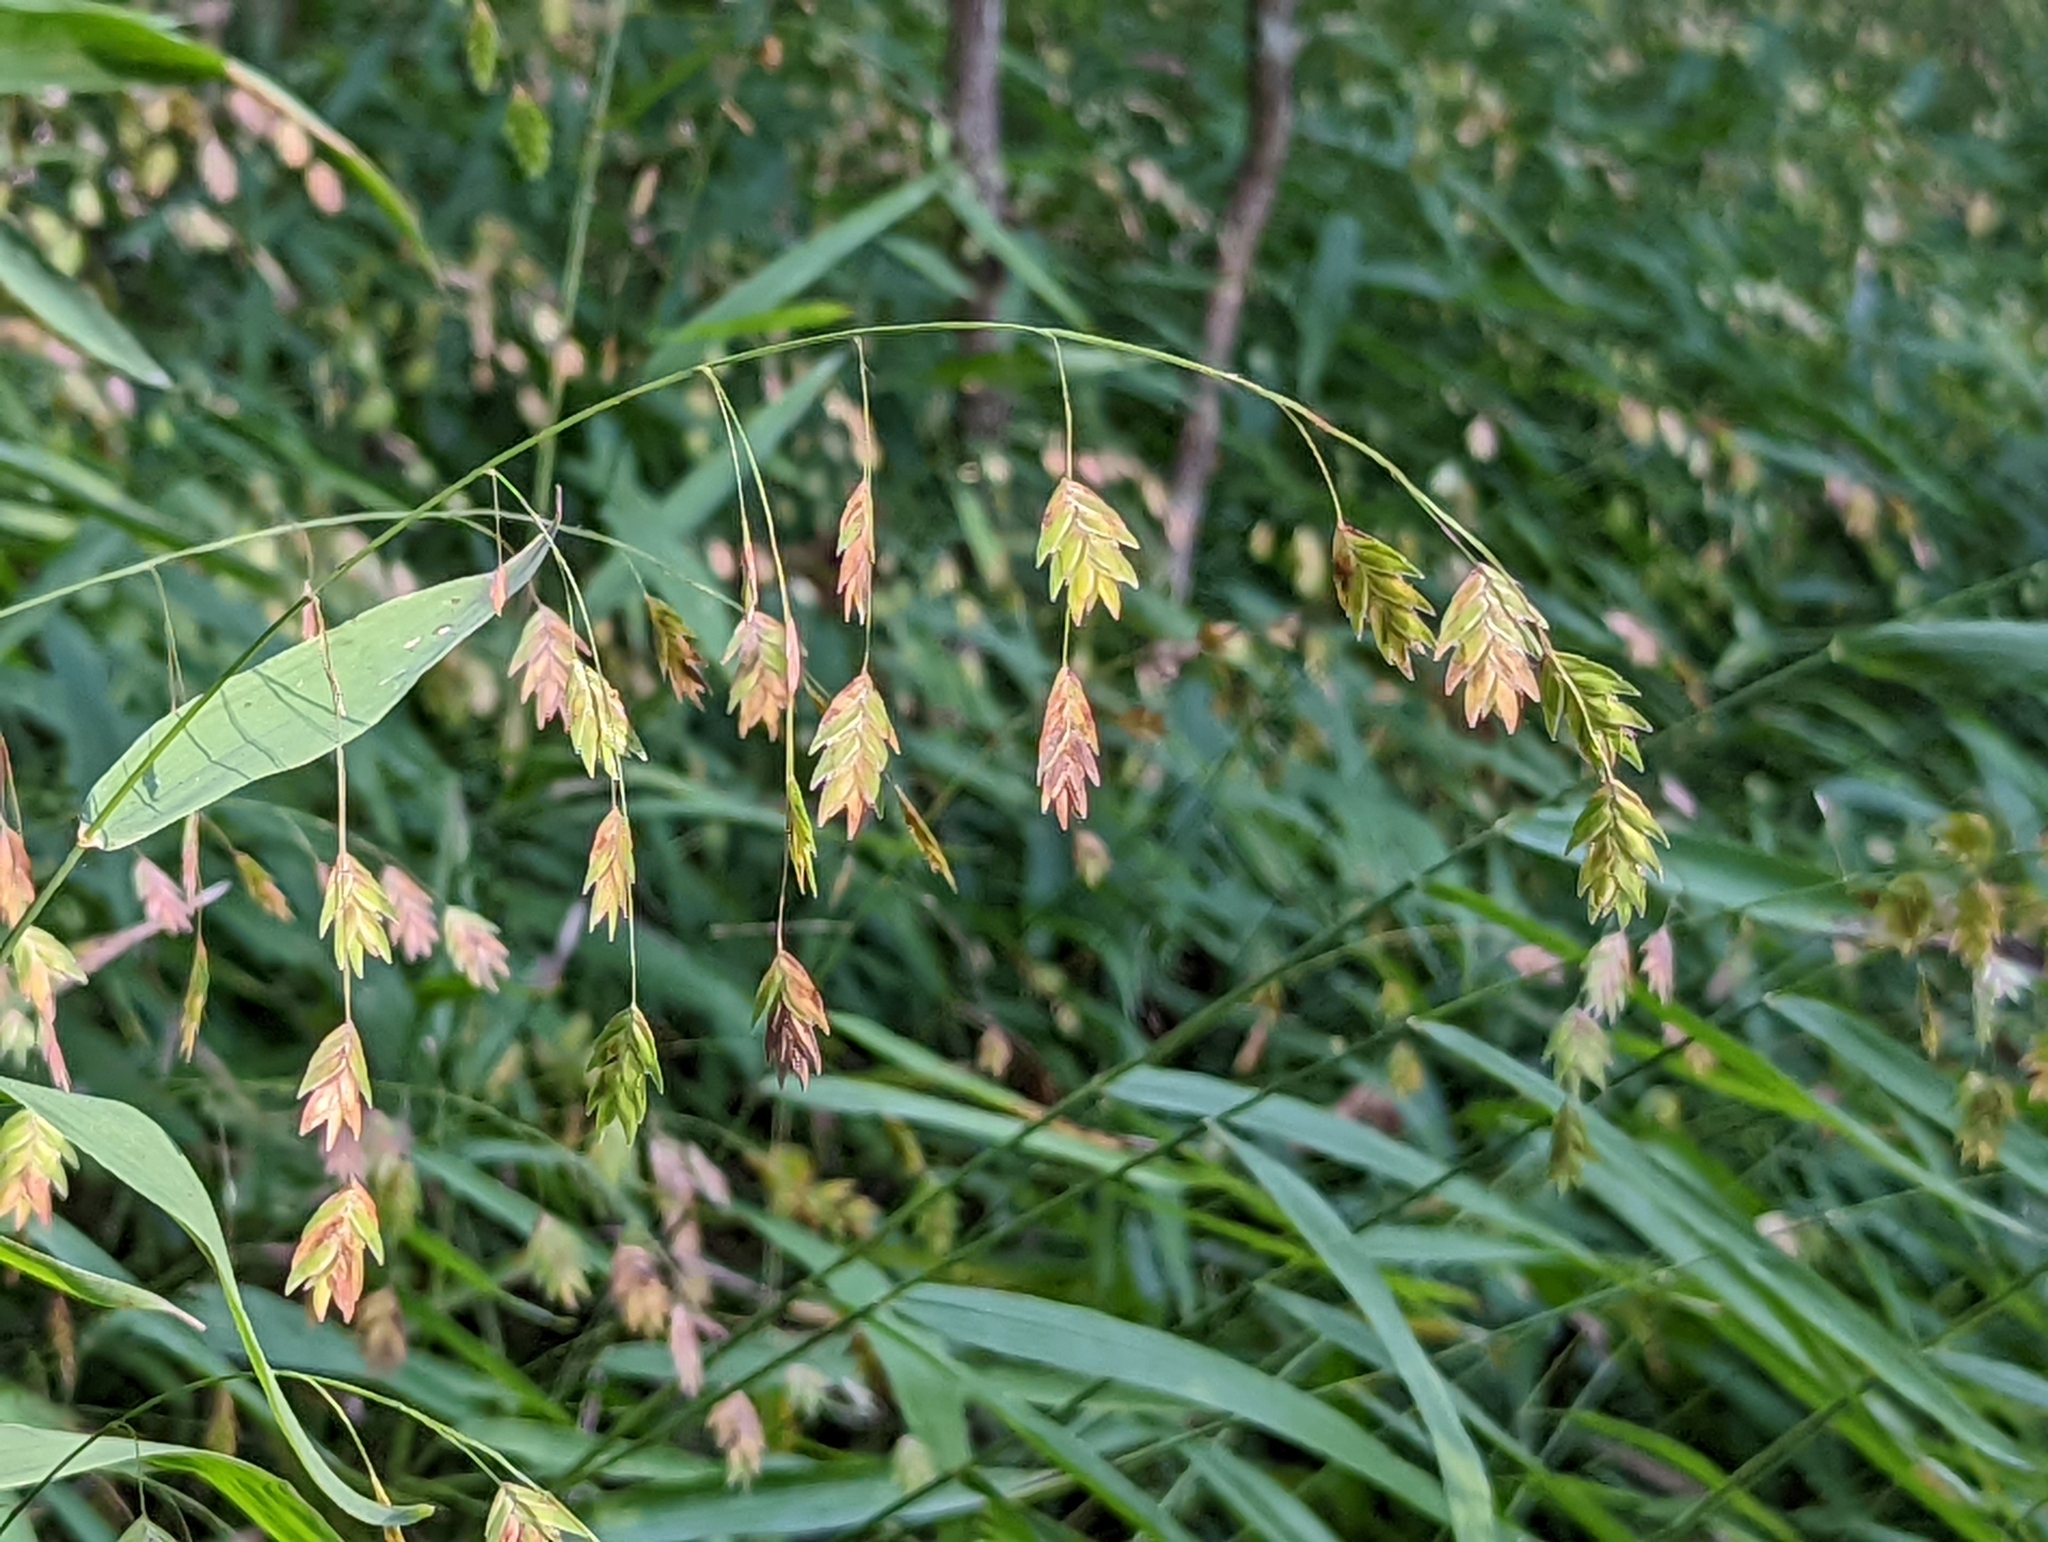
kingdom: Plantae
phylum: Tracheophyta
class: Liliopsida
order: Poales
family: Poaceae
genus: Chasmanthium
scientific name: Chasmanthium latifolium
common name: Broad-leaved chasmanthium
